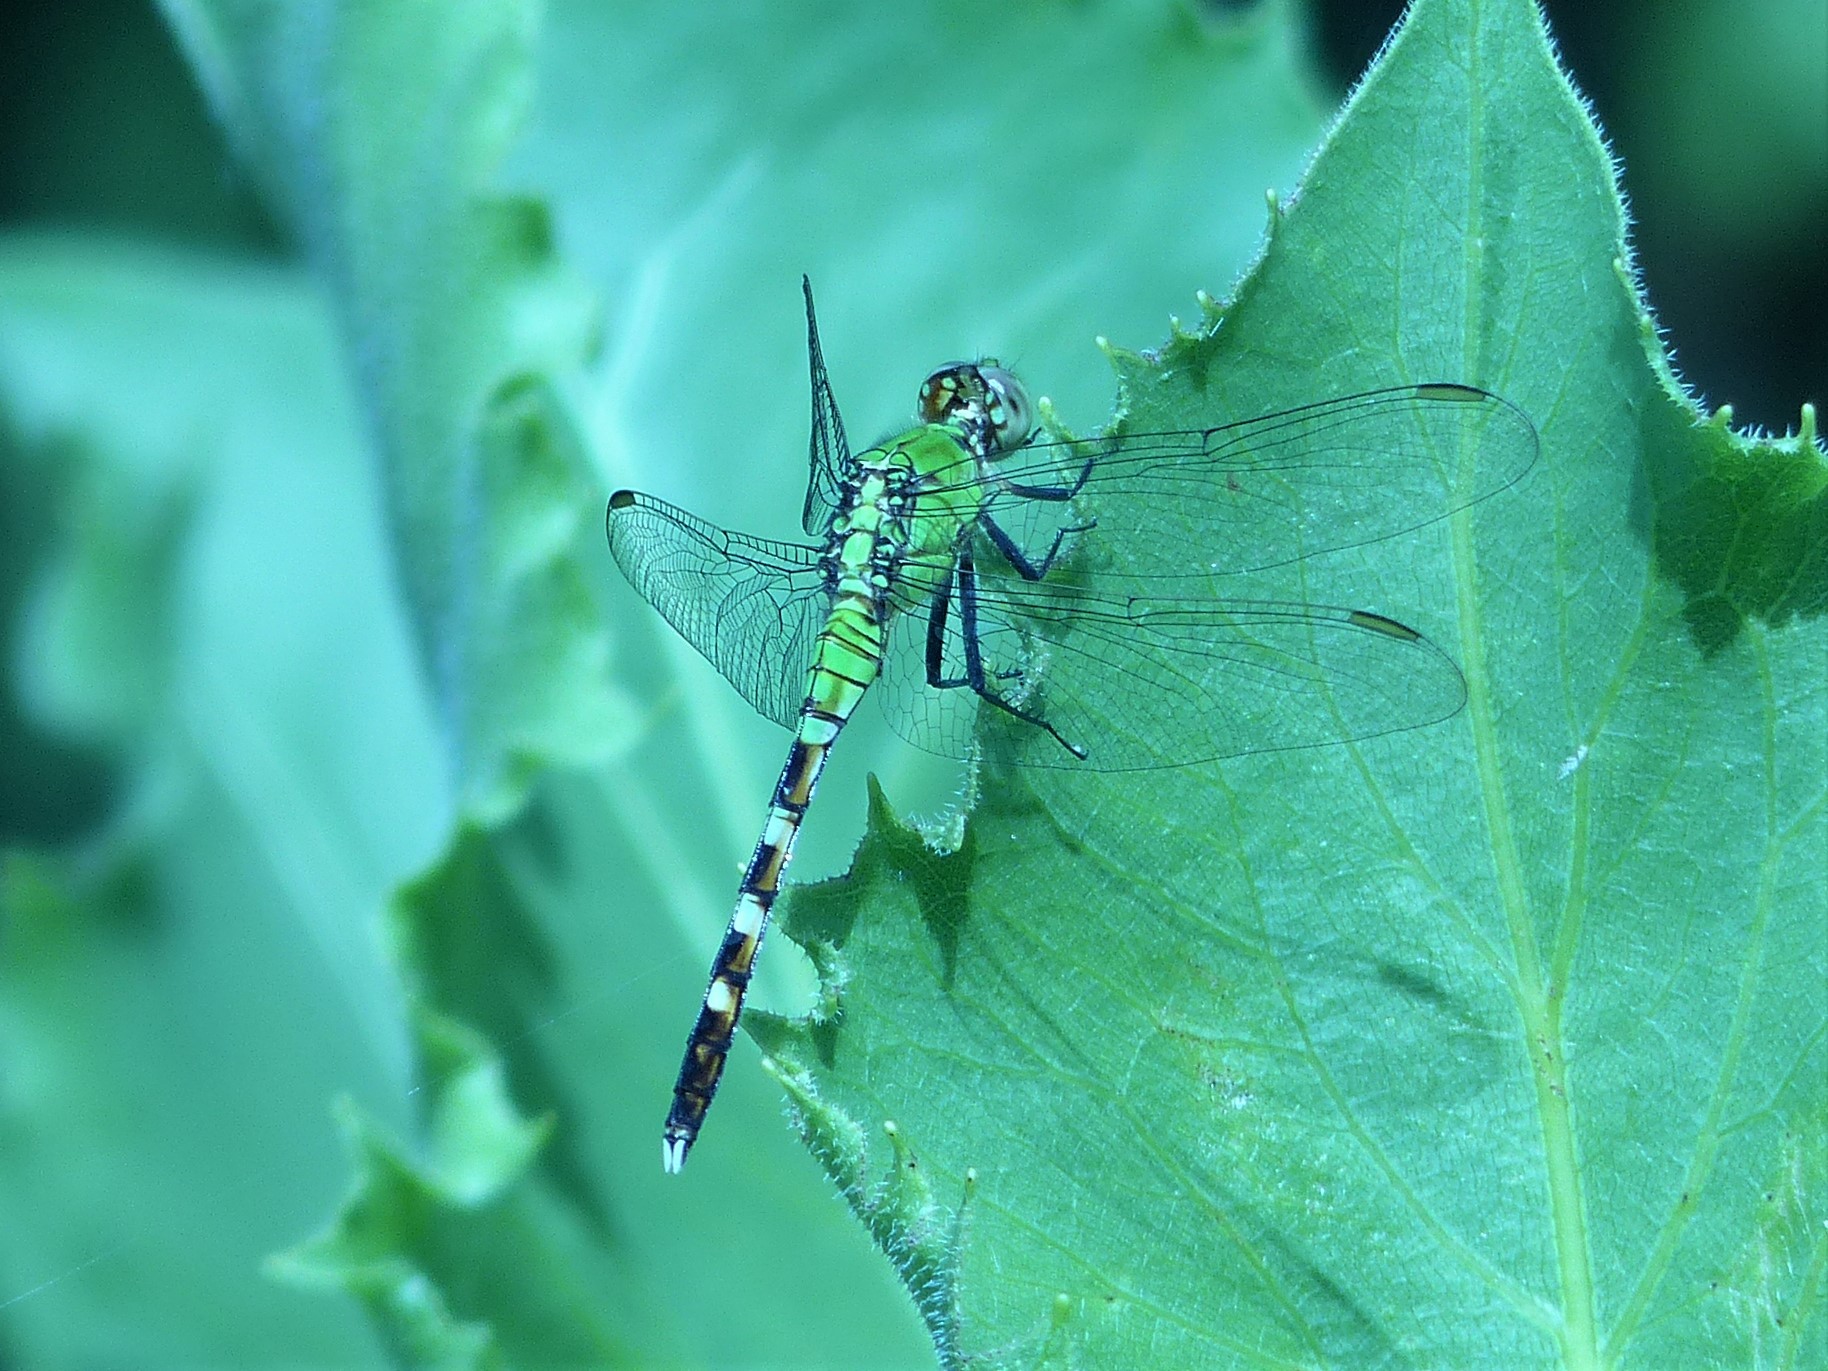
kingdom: Animalia
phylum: Arthropoda
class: Insecta
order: Odonata
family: Libellulidae
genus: Erythemis
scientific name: Erythemis simplicicollis
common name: Eastern pondhawk
